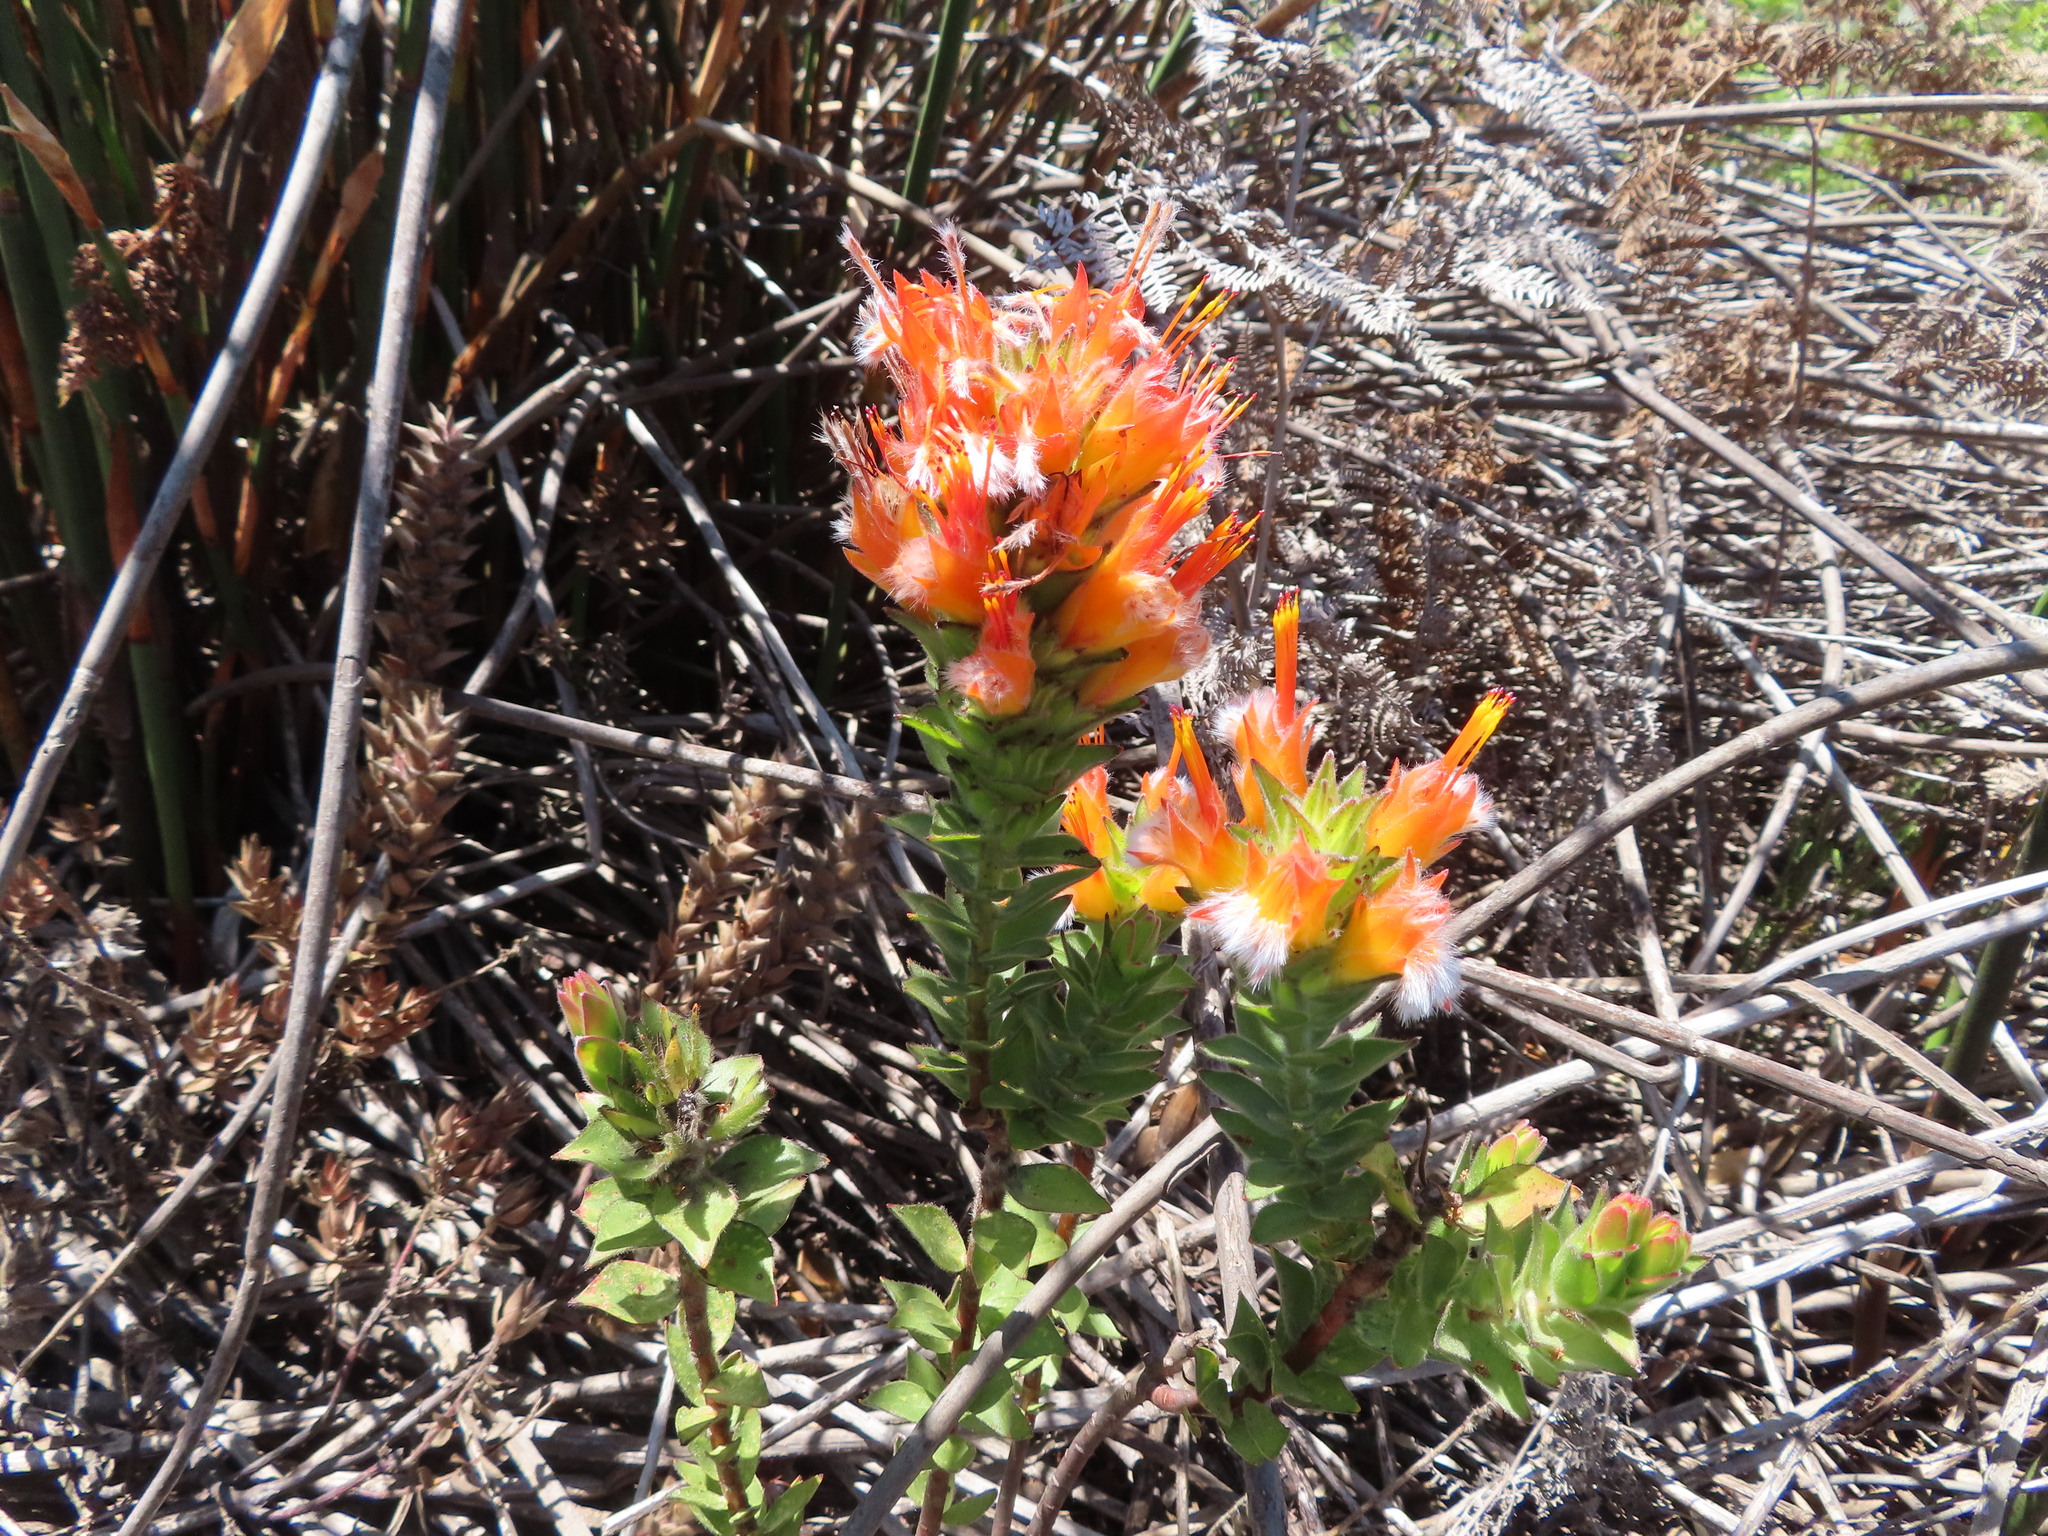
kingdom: Plantae
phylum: Tracheophyta
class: Magnoliopsida
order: Proteales
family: Proteaceae
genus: Mimetes
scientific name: Mimetes capitulatus
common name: Conical pagoda
